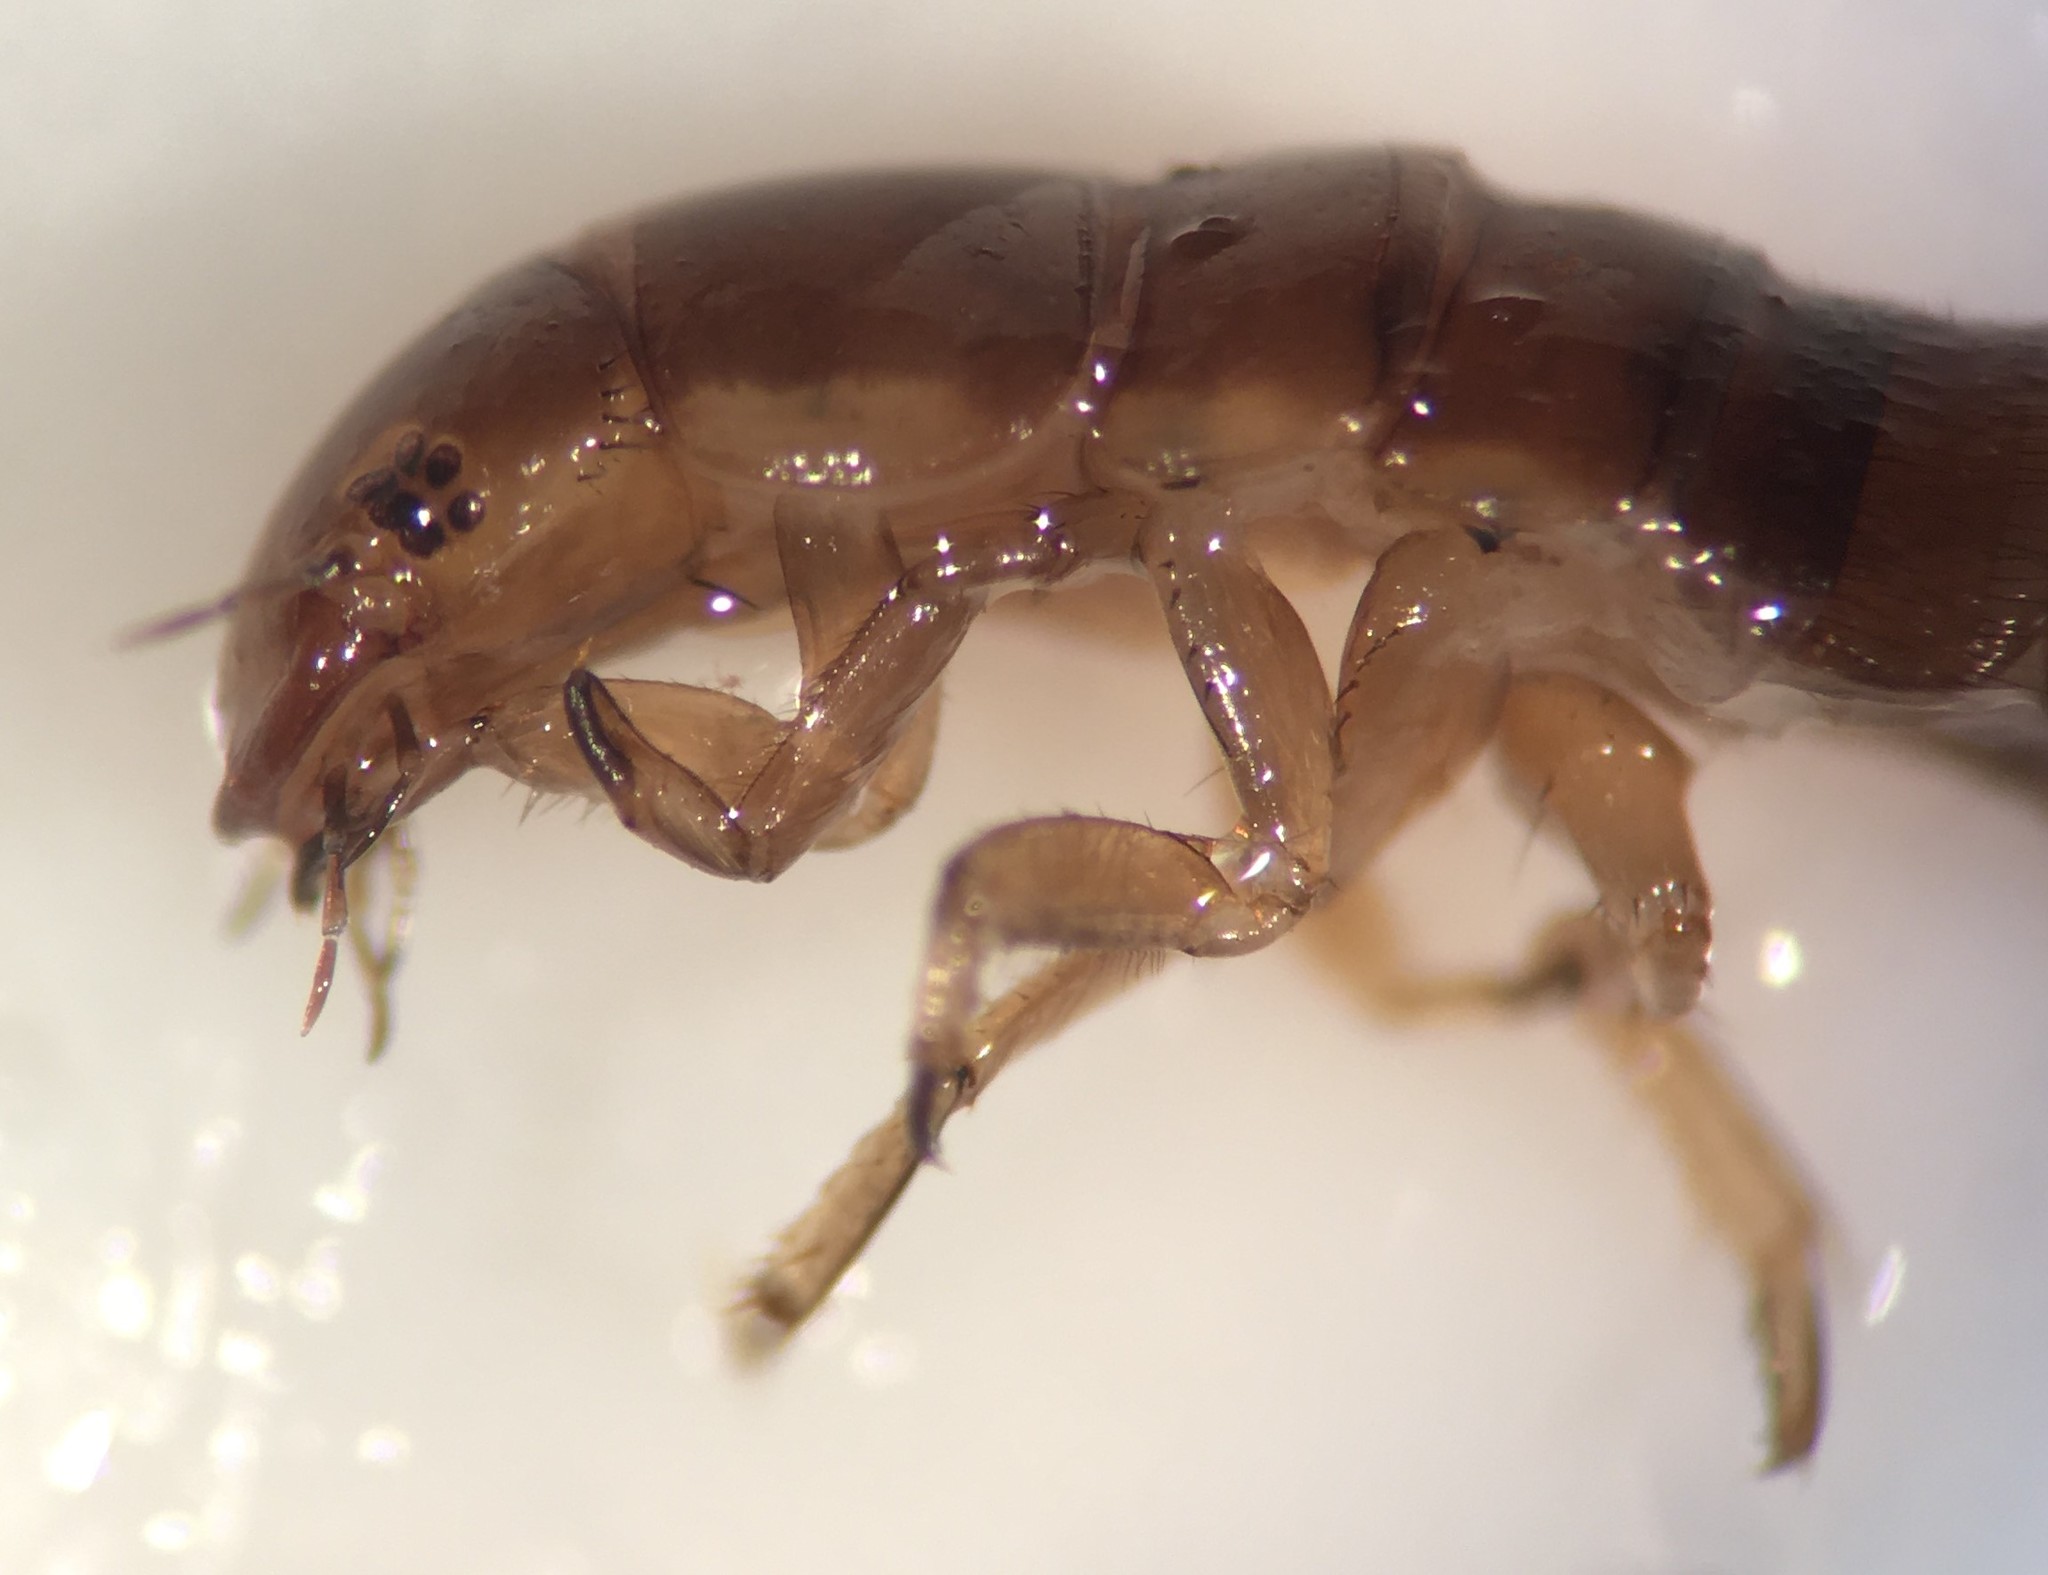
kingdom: Animalia
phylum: Arthropoda
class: Insecta
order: Coleoptera
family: Dytiscidae
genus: Matus
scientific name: Matus ovatus
